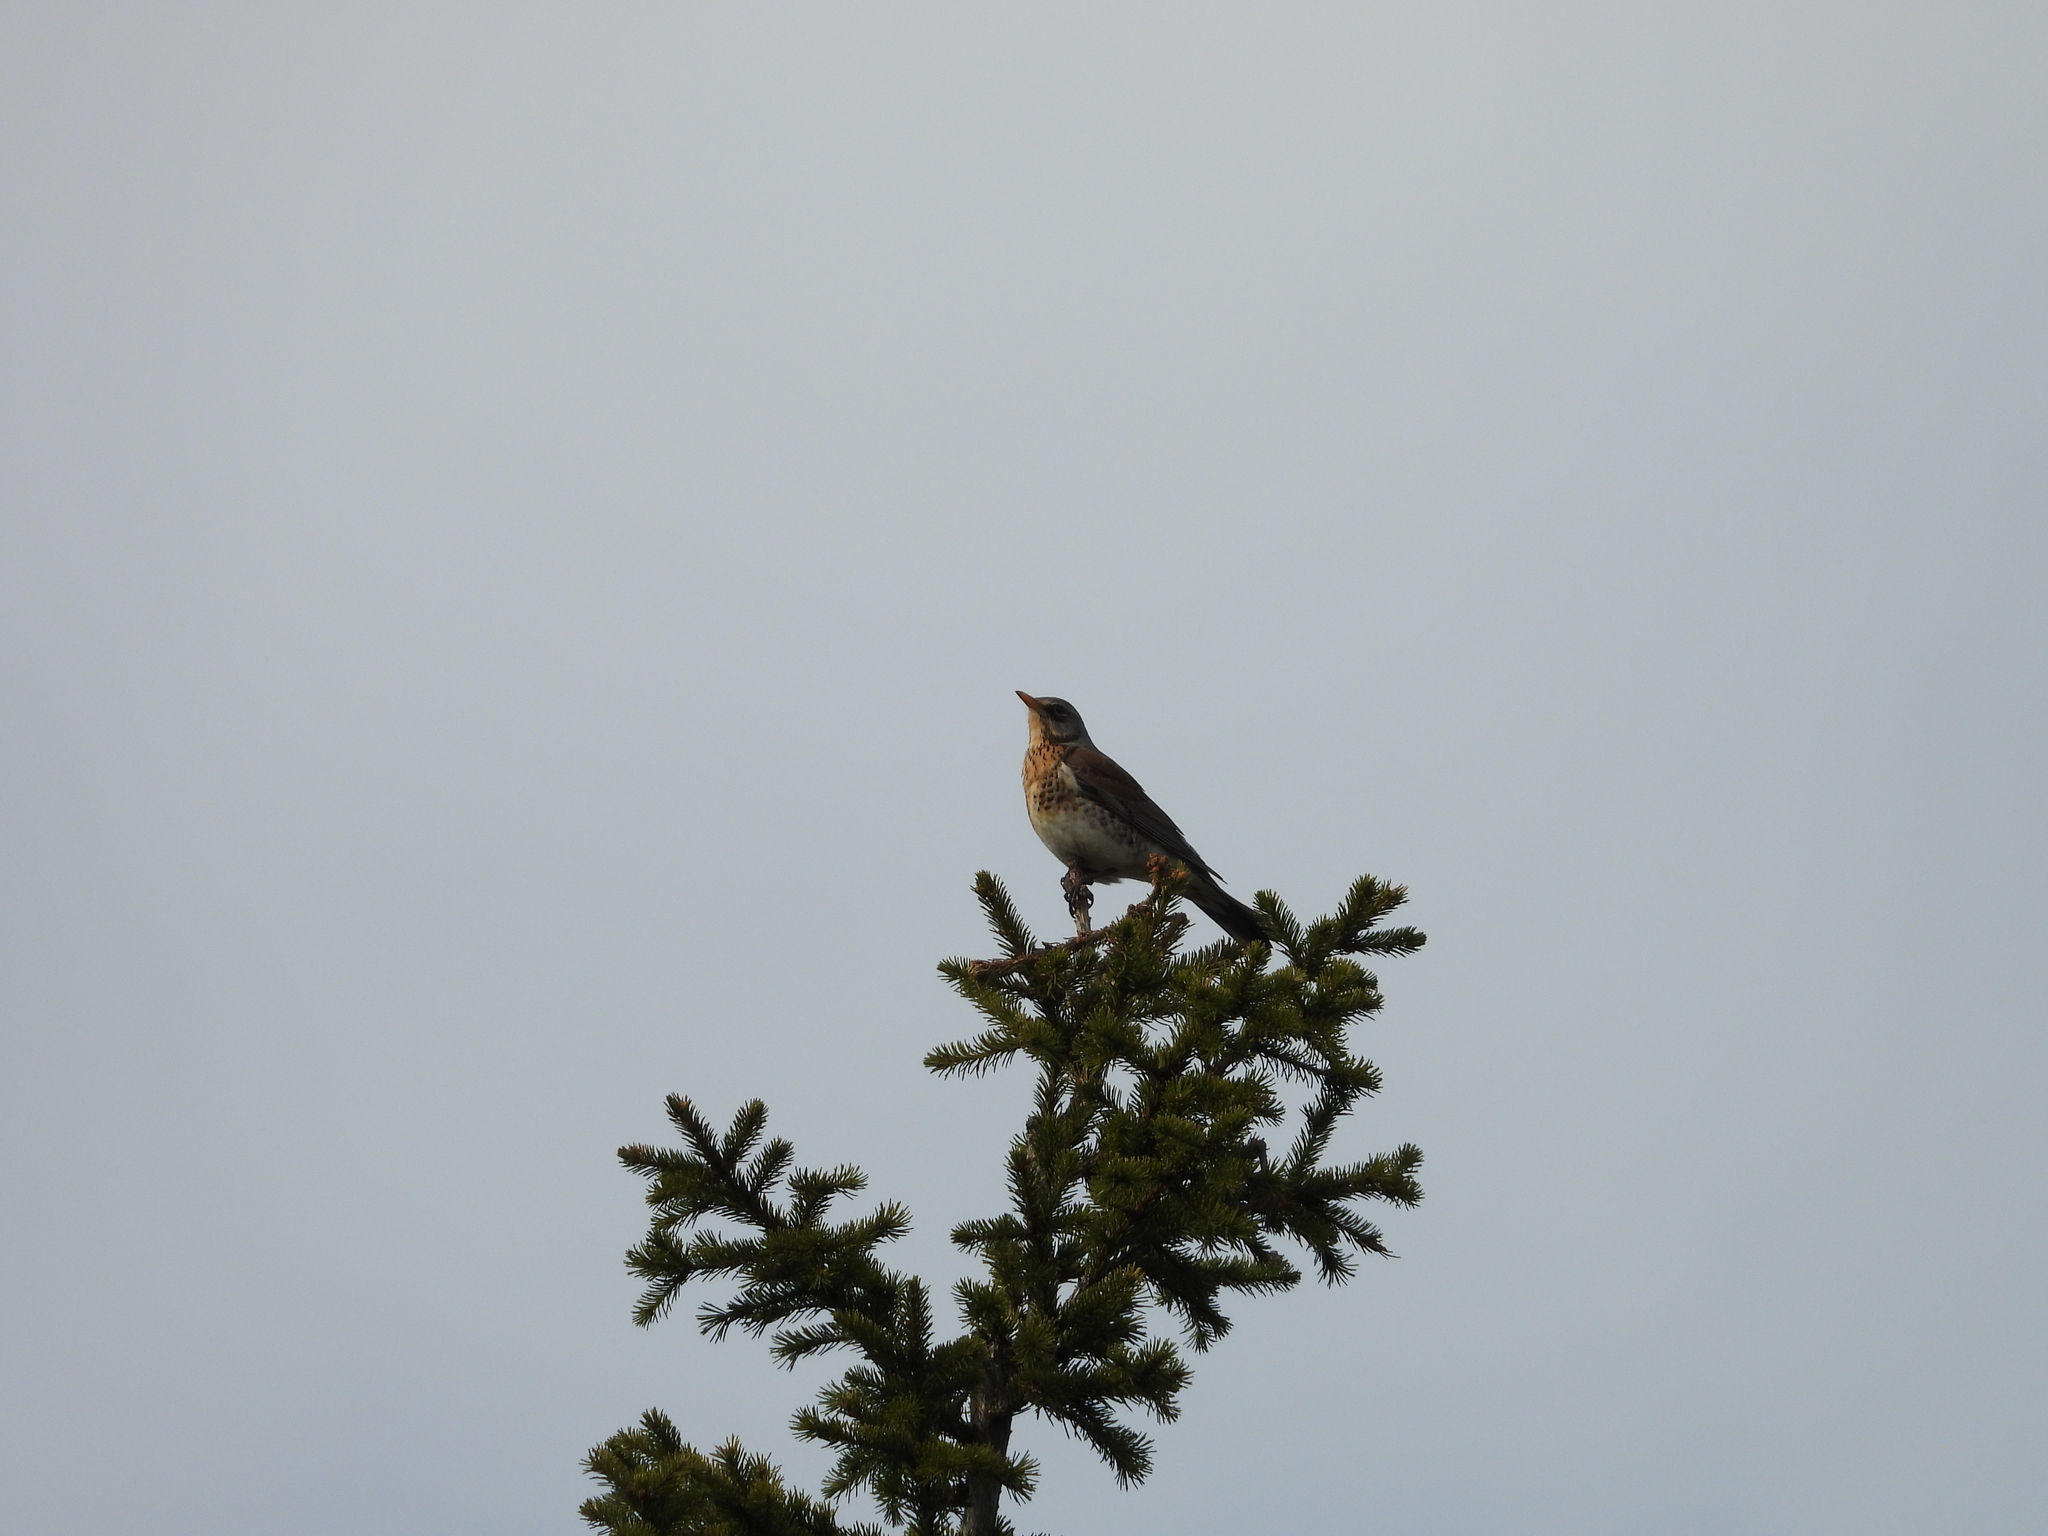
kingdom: Animalia
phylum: Chordata
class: Aves
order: Passeriformes
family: Turdidae
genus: Turdus
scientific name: Turdus pilaris
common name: Fieldfare
